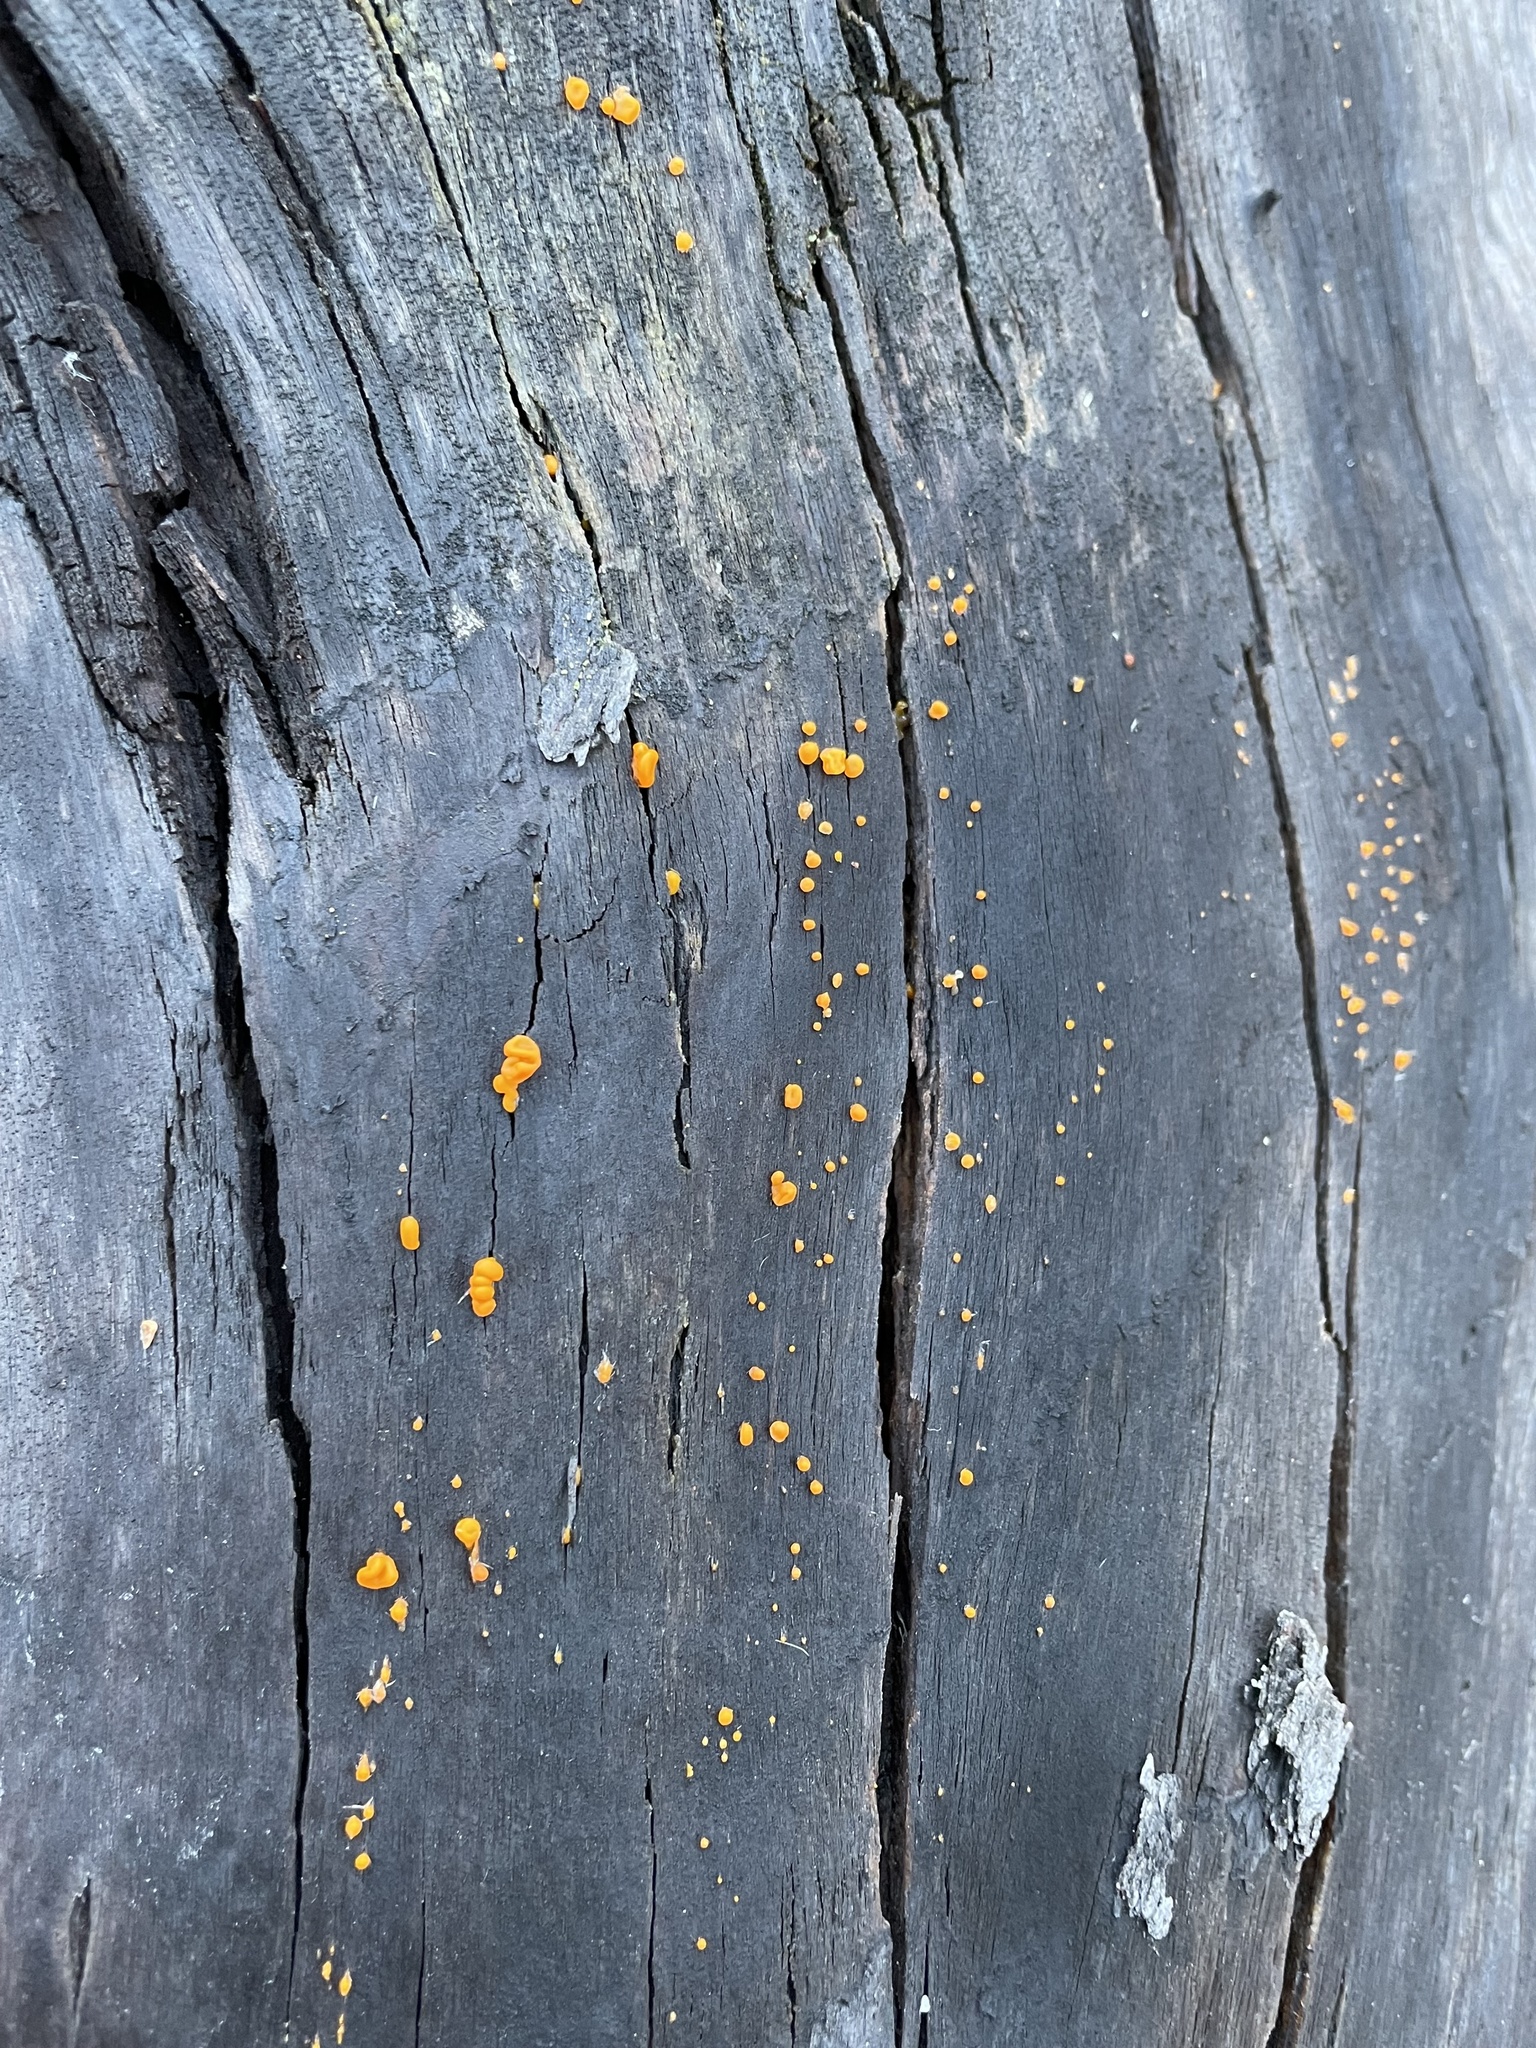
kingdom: Fungi
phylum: Basidiomycota
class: Dacrymycetes
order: Dacrymycetales
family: Dacrymycetaceae
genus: Dacrymyces
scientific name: Dacrymyces chrysospermus
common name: Orange jelly spot
